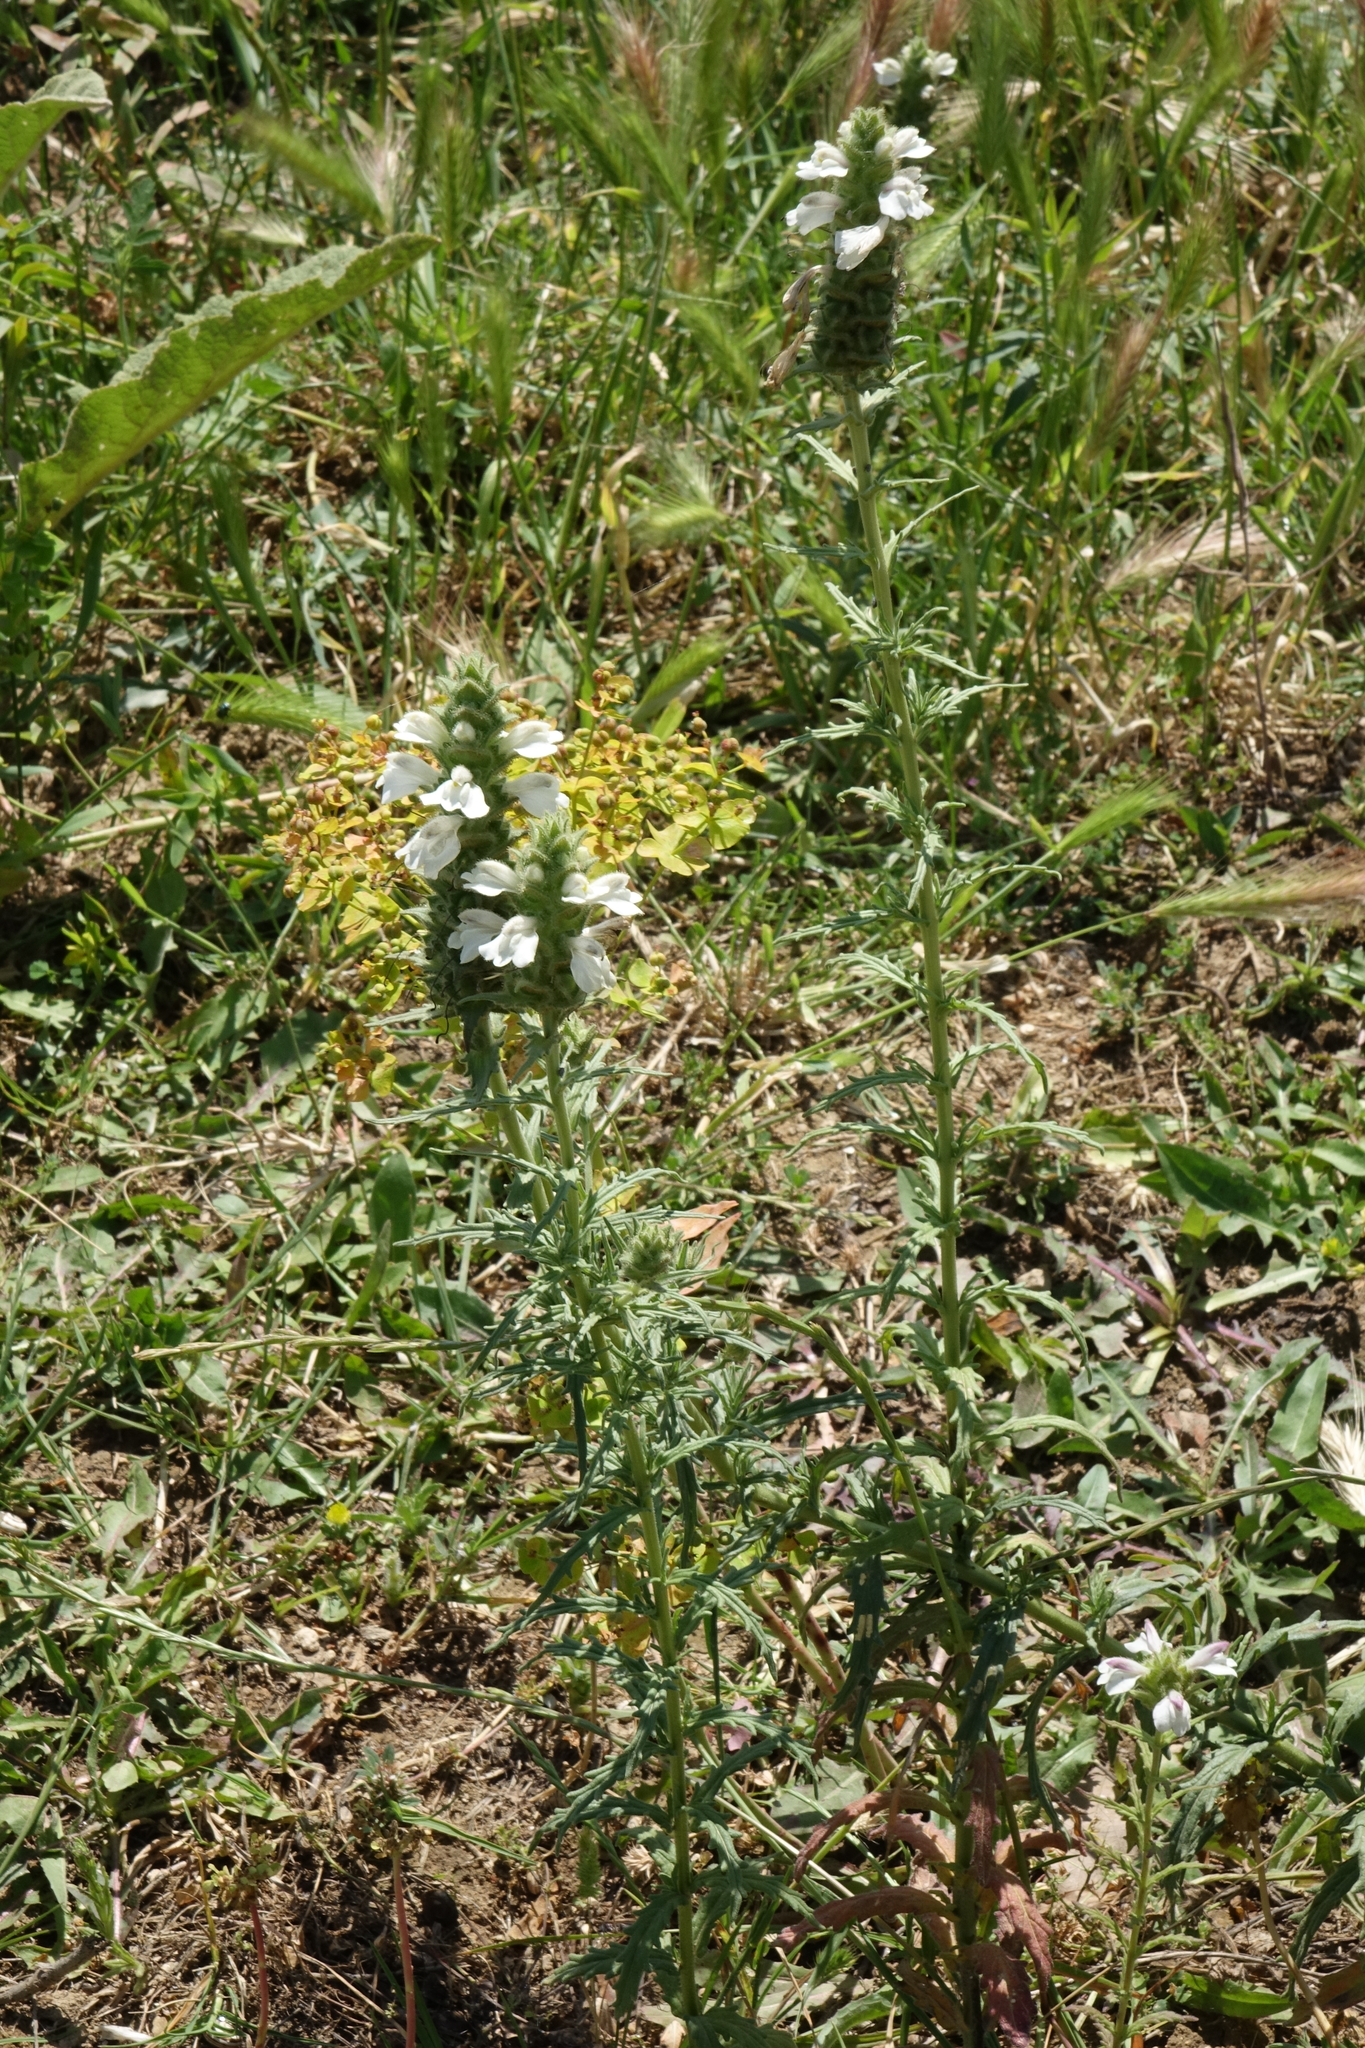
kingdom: Plantae
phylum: Tracheophyta
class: Magnoliopsida
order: Lamiales
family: Orobanchaceae
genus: Bellardia
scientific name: Bellardia trixago
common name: Mediterranean lineseed
